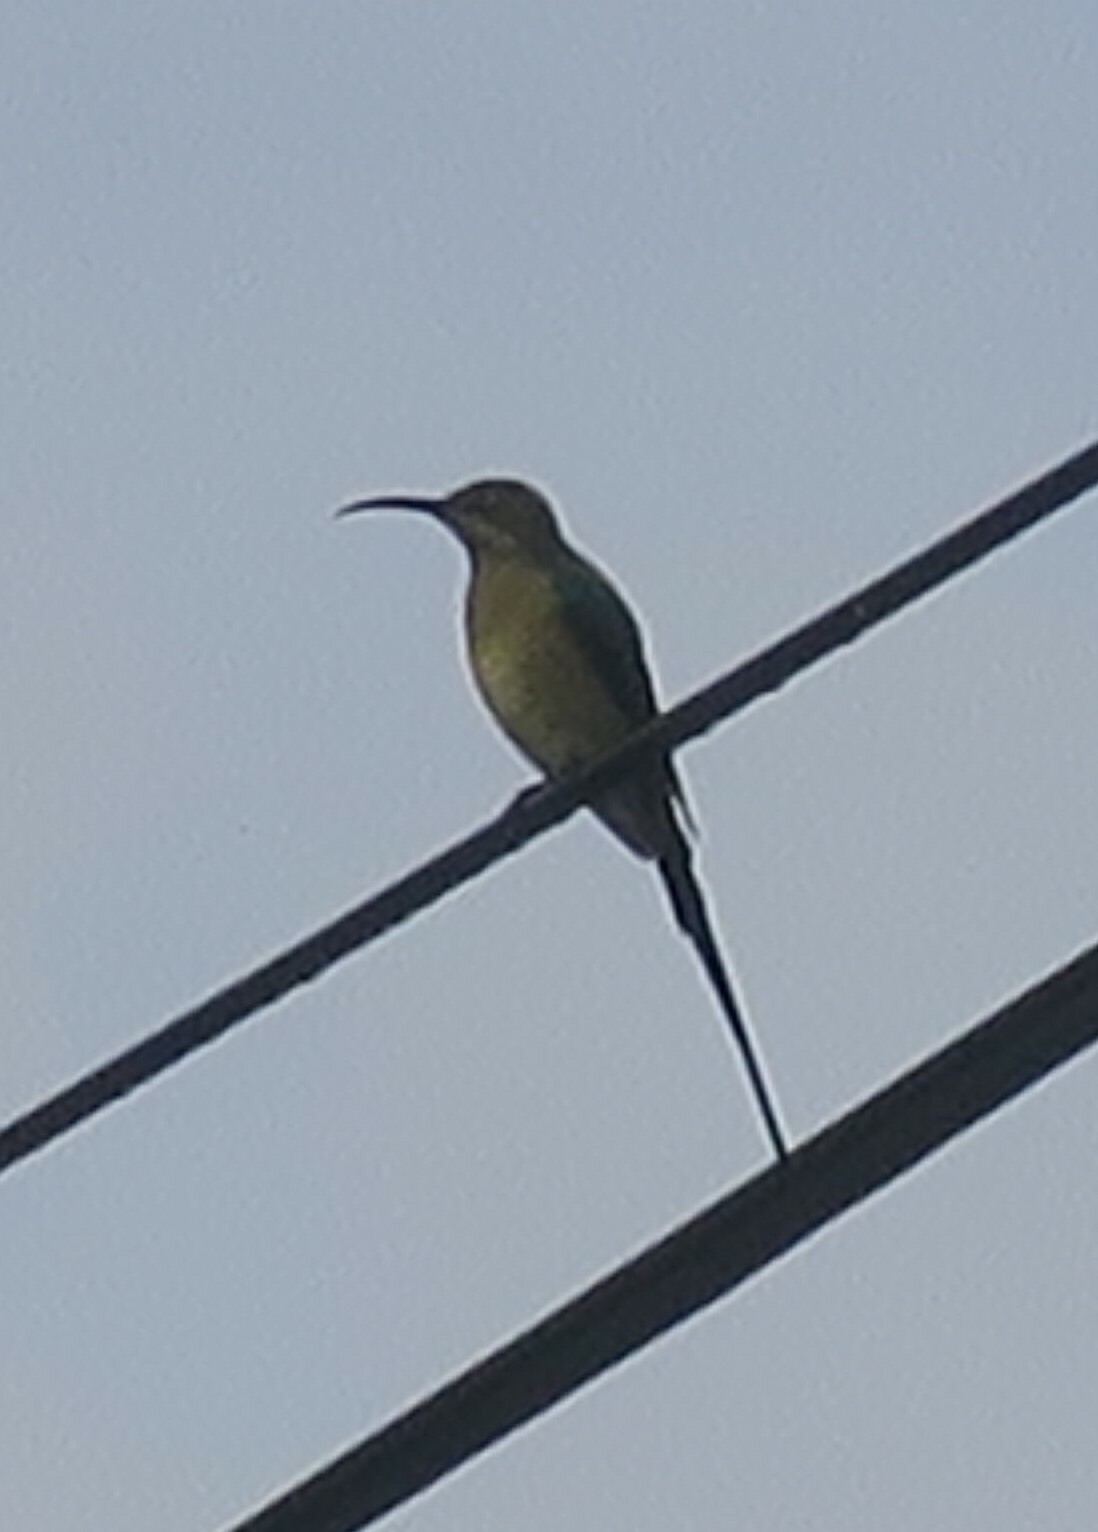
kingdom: Animalia
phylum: Chordata
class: Aves
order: Passeriformes
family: Nectariniidae
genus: Nectarinia
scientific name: Nectarinia famosa
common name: Malachite sunbird
